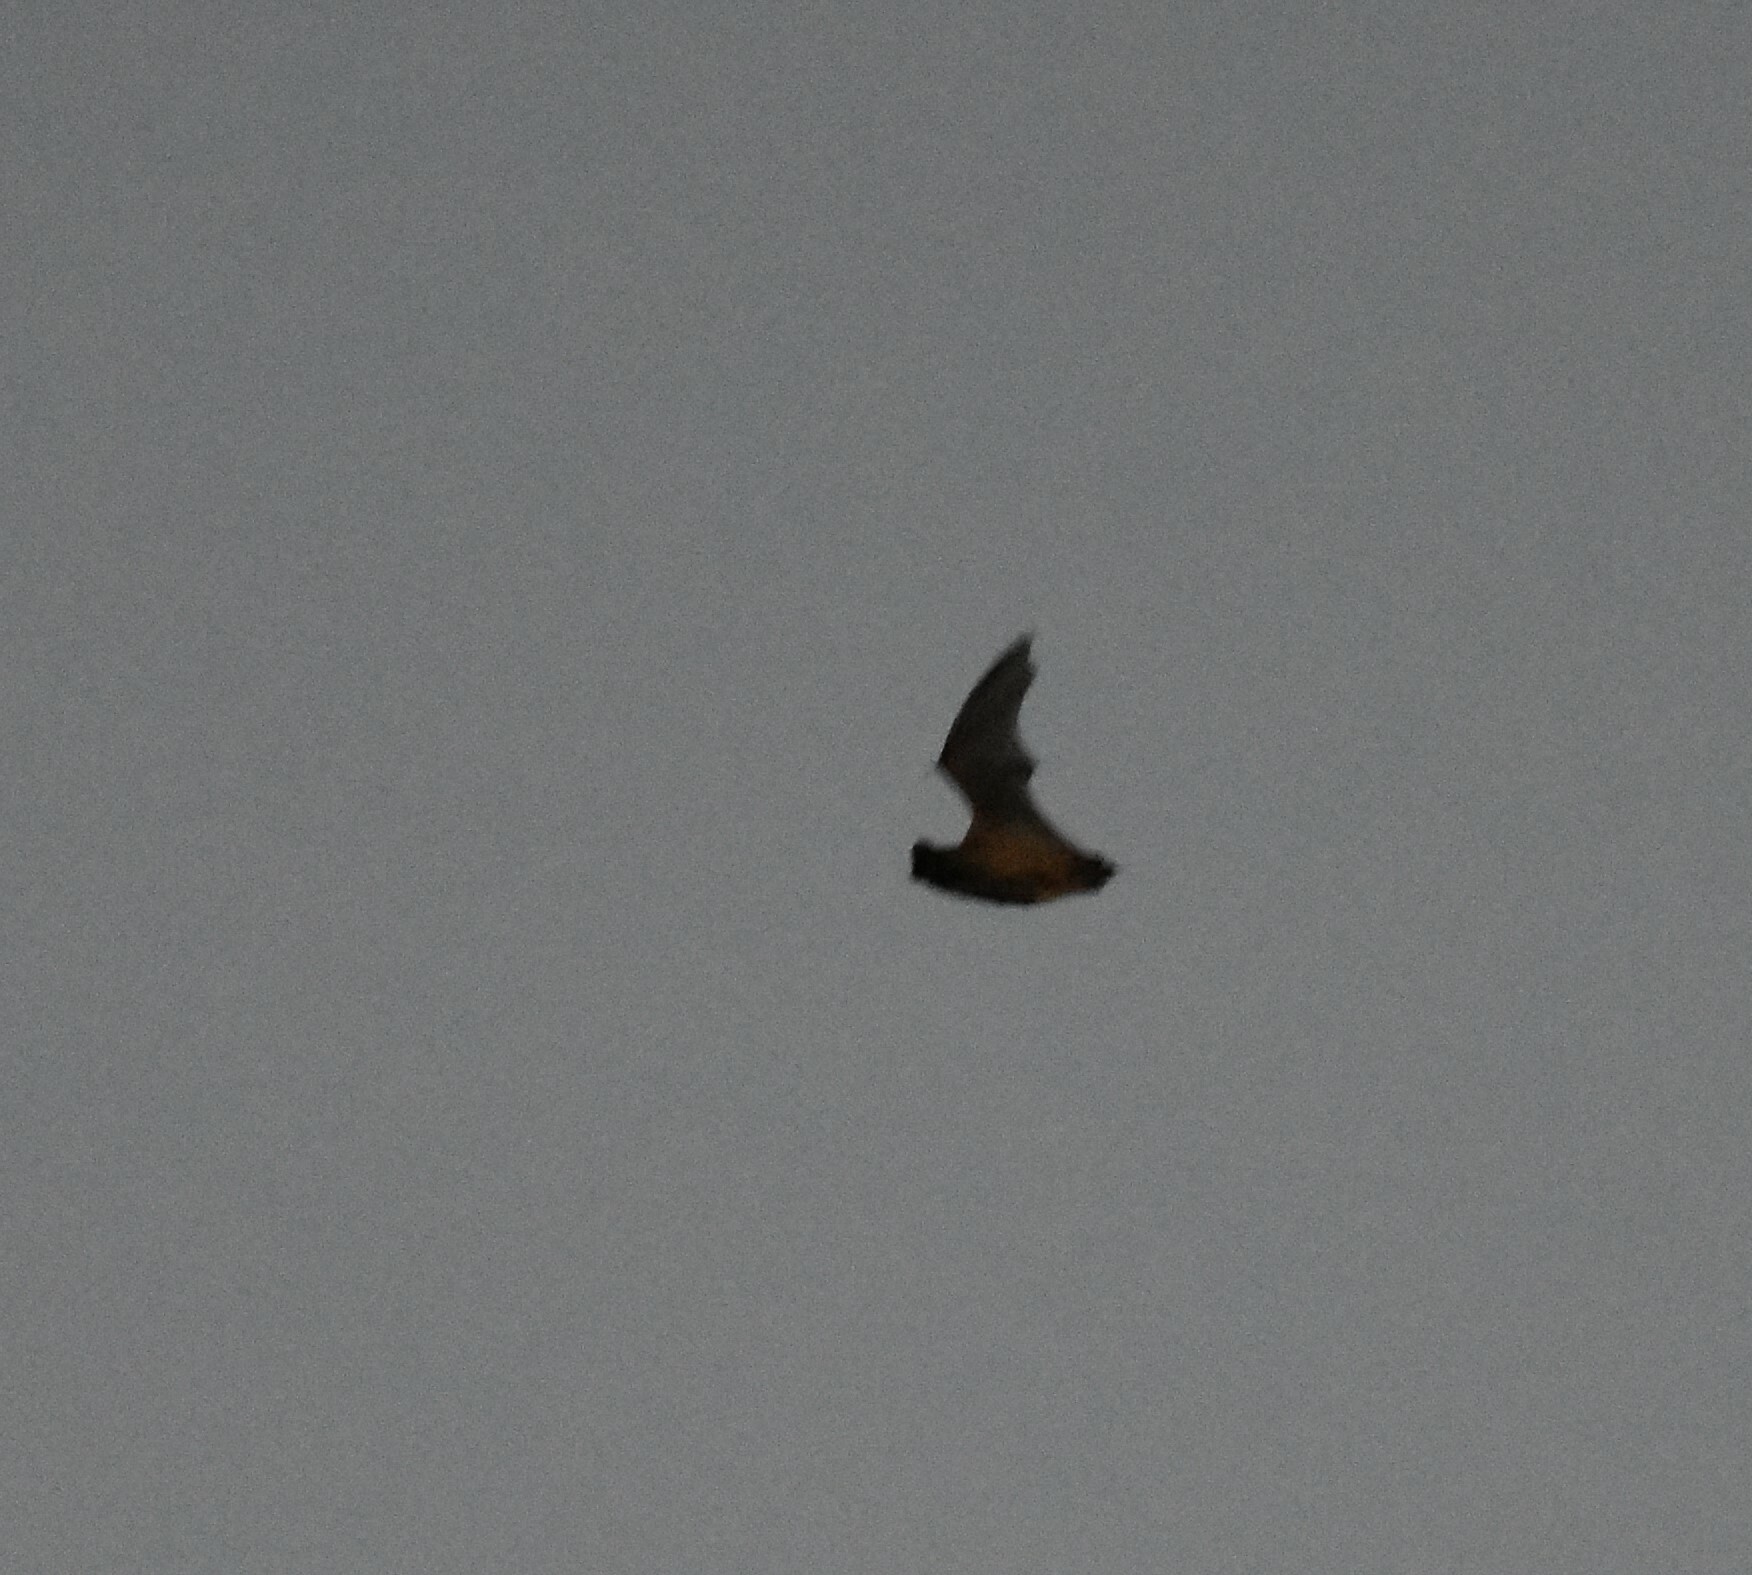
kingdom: Animalia
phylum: Chordata
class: Mammalia
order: Chiroptera
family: Molossidae
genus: Tadarida
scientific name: Tadarida aegyptiaca
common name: Egyptian free-tailed bat
